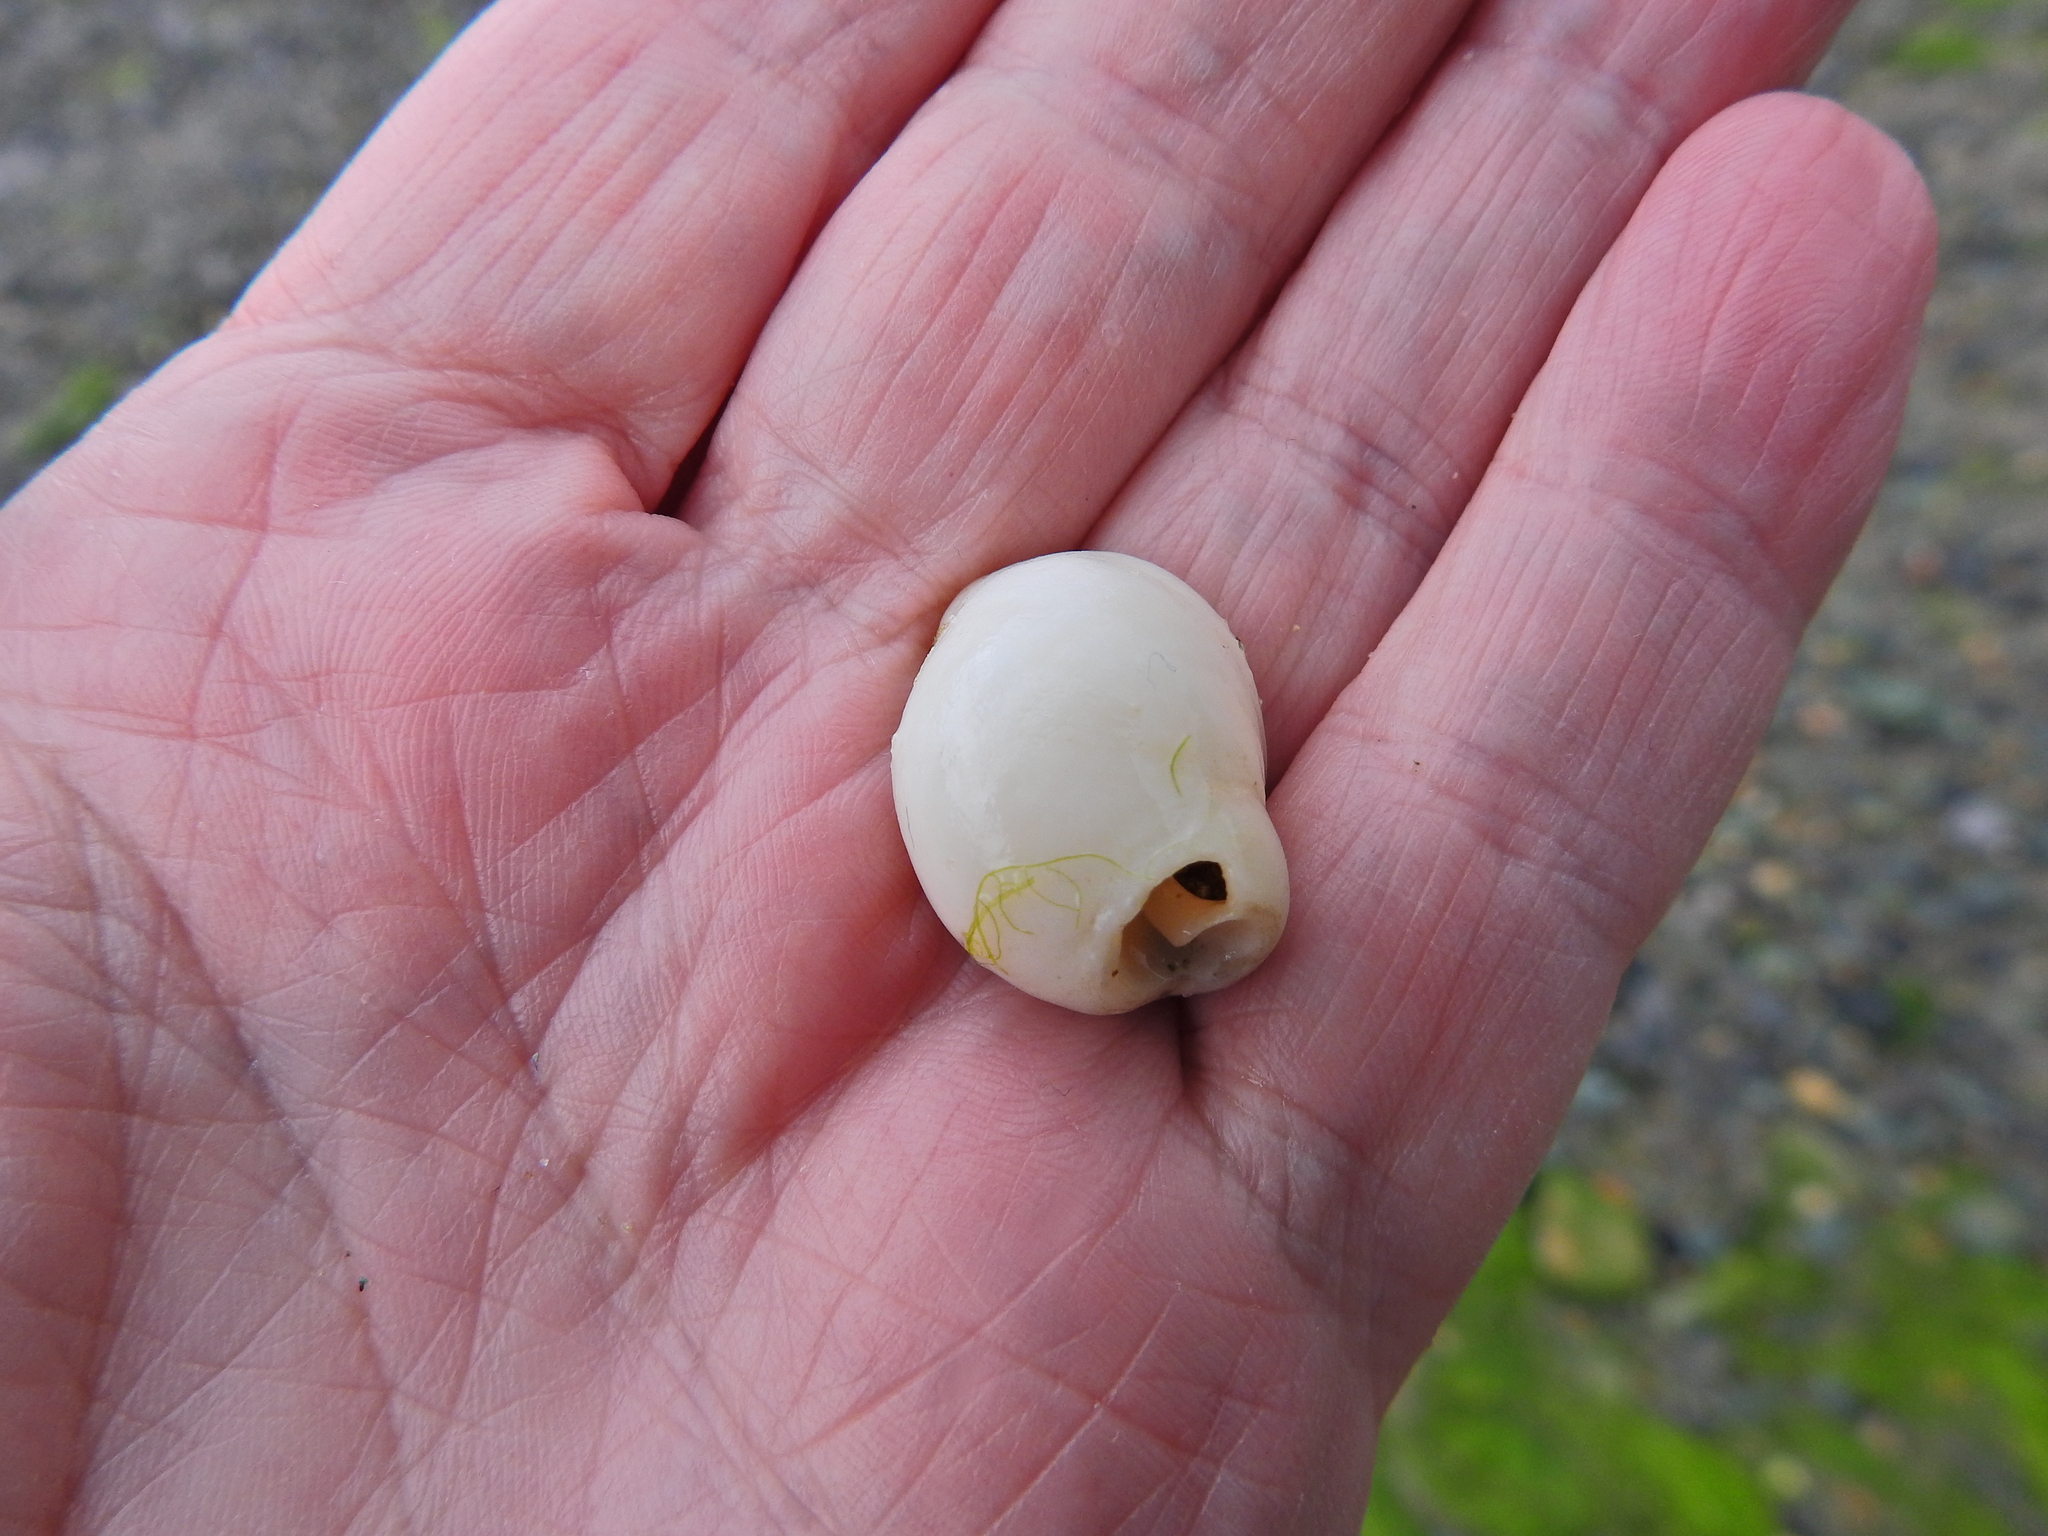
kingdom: Animalia
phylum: Mollusca
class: Gastropoda
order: Neogastropoda
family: Muricidae
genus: Nucella
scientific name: Nucella lapillus
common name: Dog whelk
